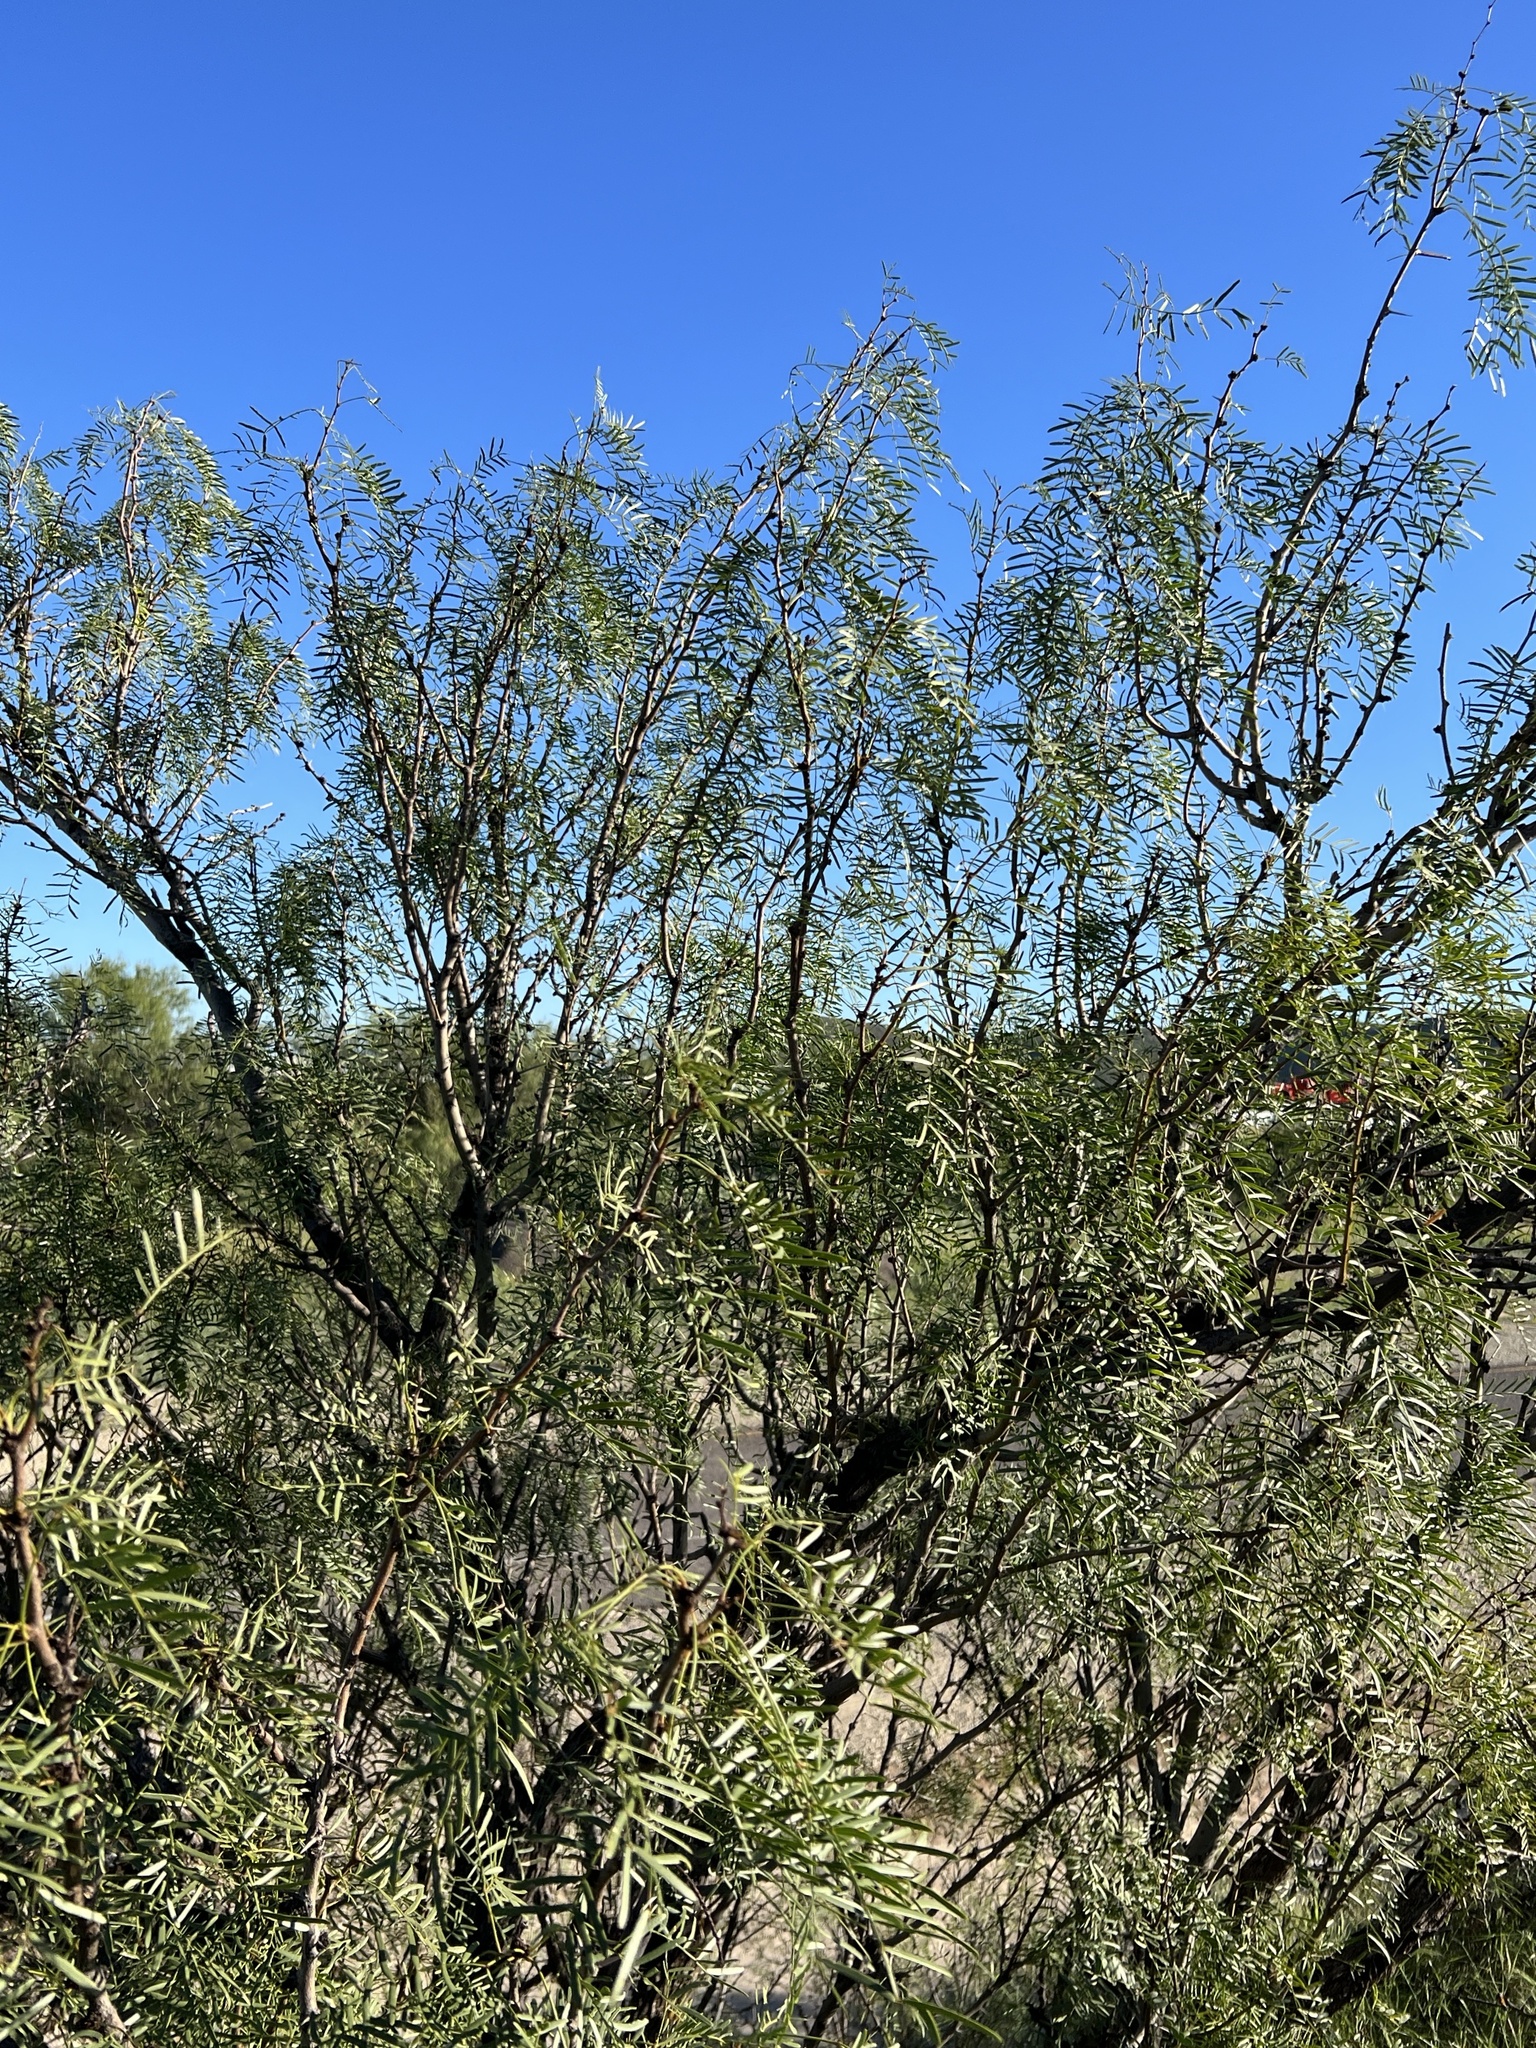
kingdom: Plantae
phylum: Tracheophyta
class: Magnoliopsida
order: Fabales
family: Fabaceae
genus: Prosopis
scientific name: Prosopis glandulosa
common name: Honey mesquite
